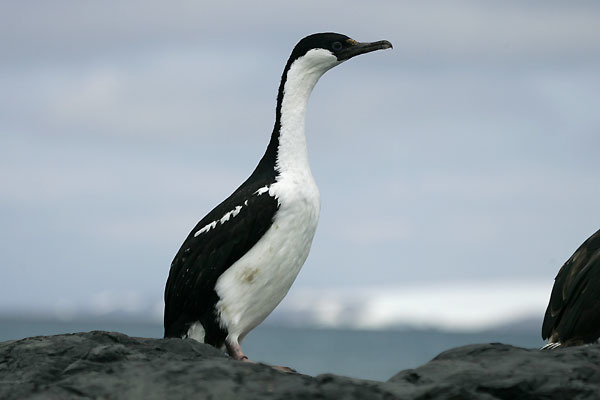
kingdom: Animalia
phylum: Chordata
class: Aves
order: Suliformes
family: Phalacrocoracidae
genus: Leucocarbo
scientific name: Leucocarbo atriceps
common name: Imperial shag
